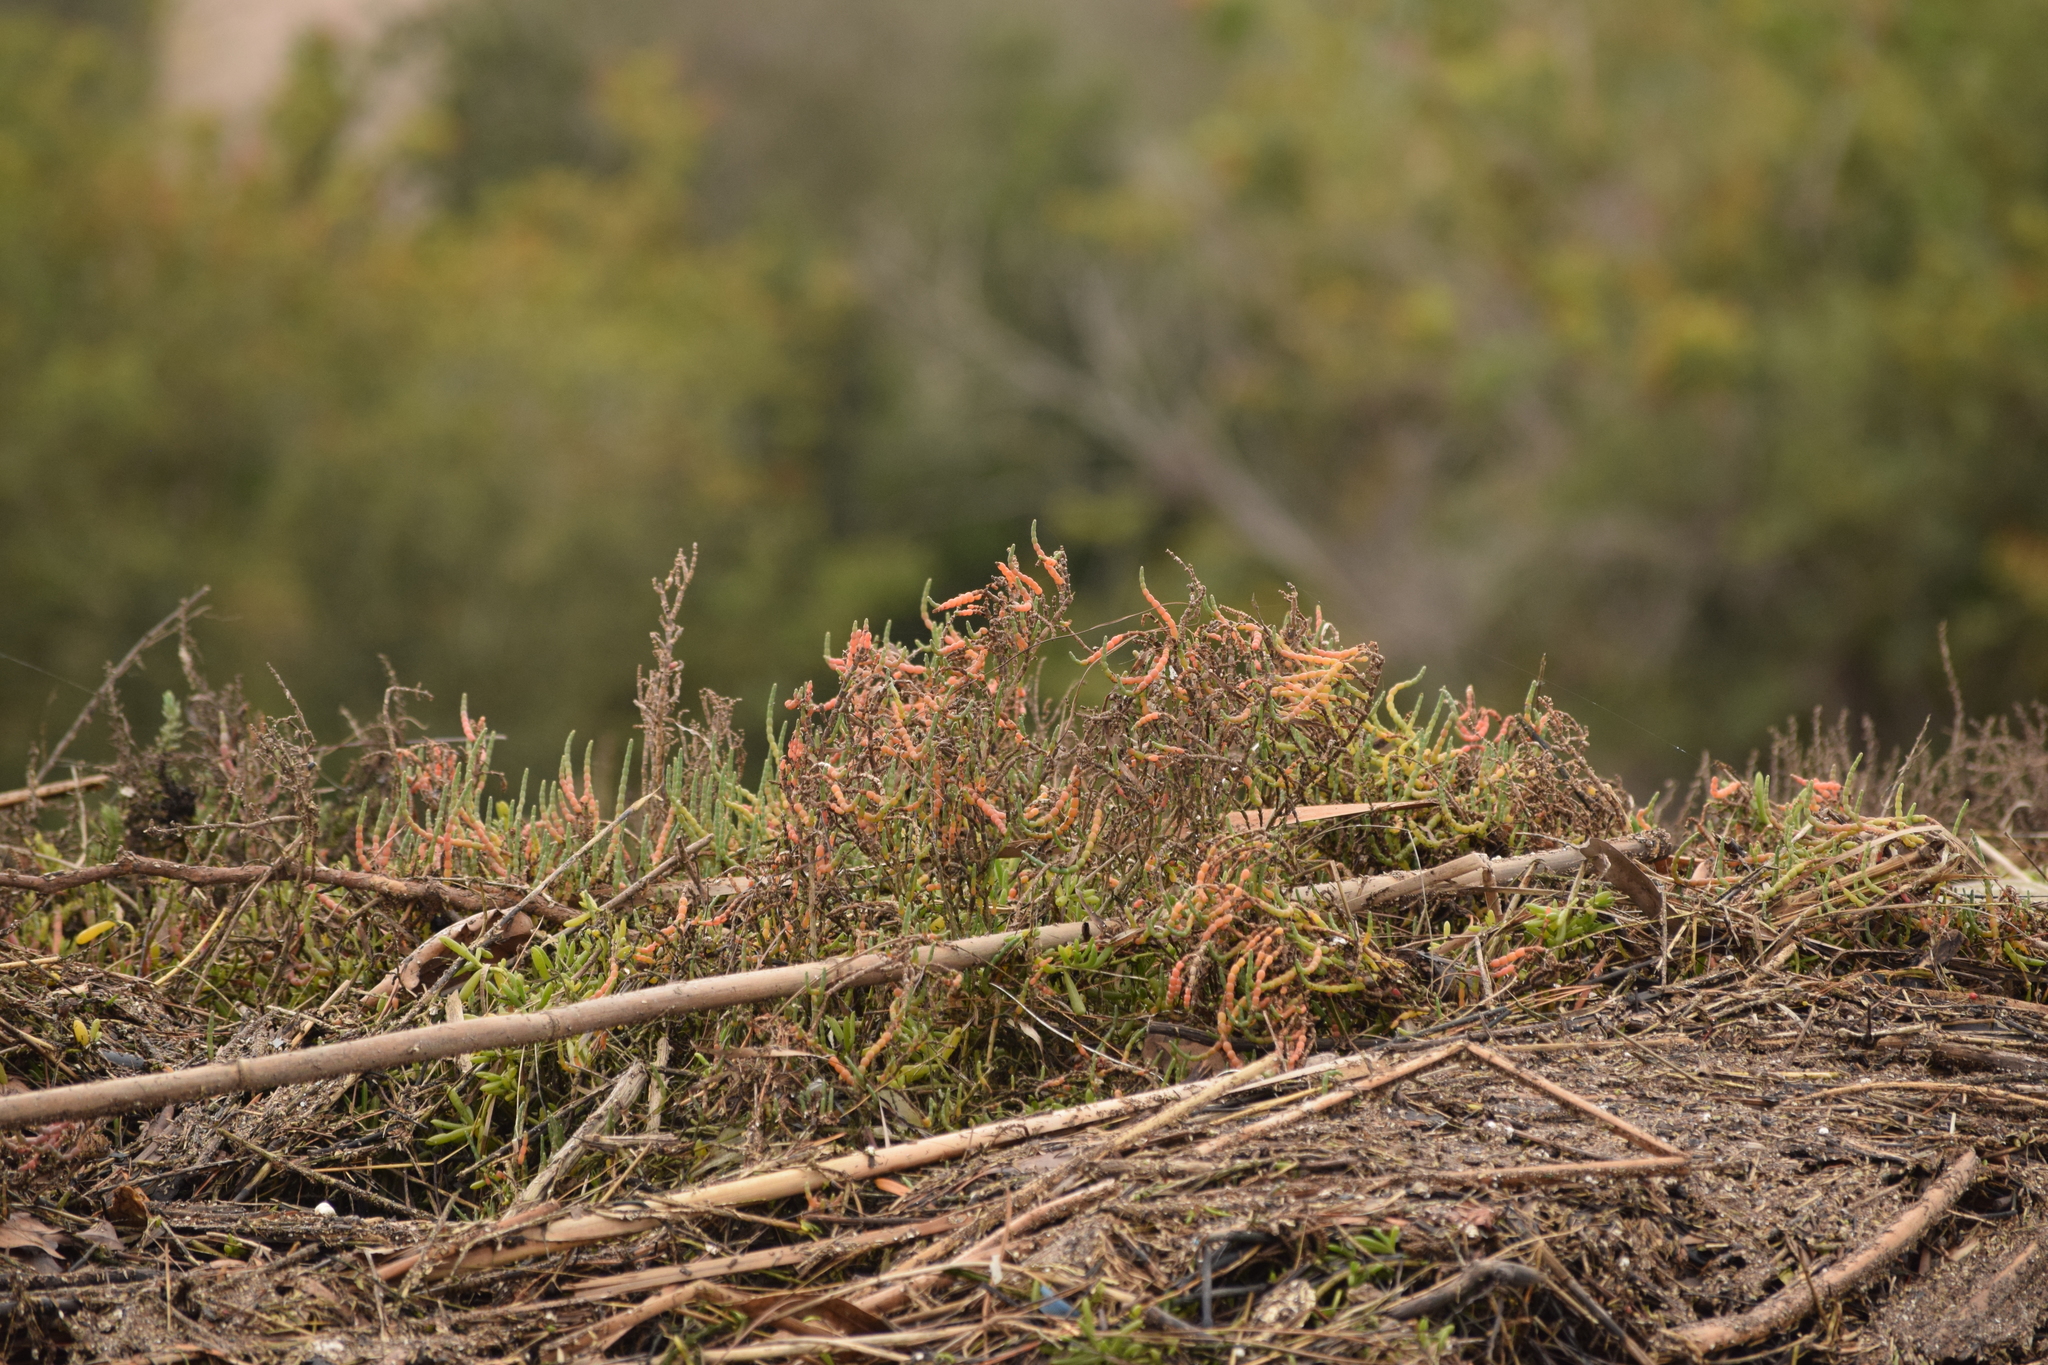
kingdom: Plantae
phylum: Tracheophyta
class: Magnoliopsida
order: Caryophyllales
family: Amaranthaceae
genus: Salicornia
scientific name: Salicornia pacifica
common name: Pacific glasswort
